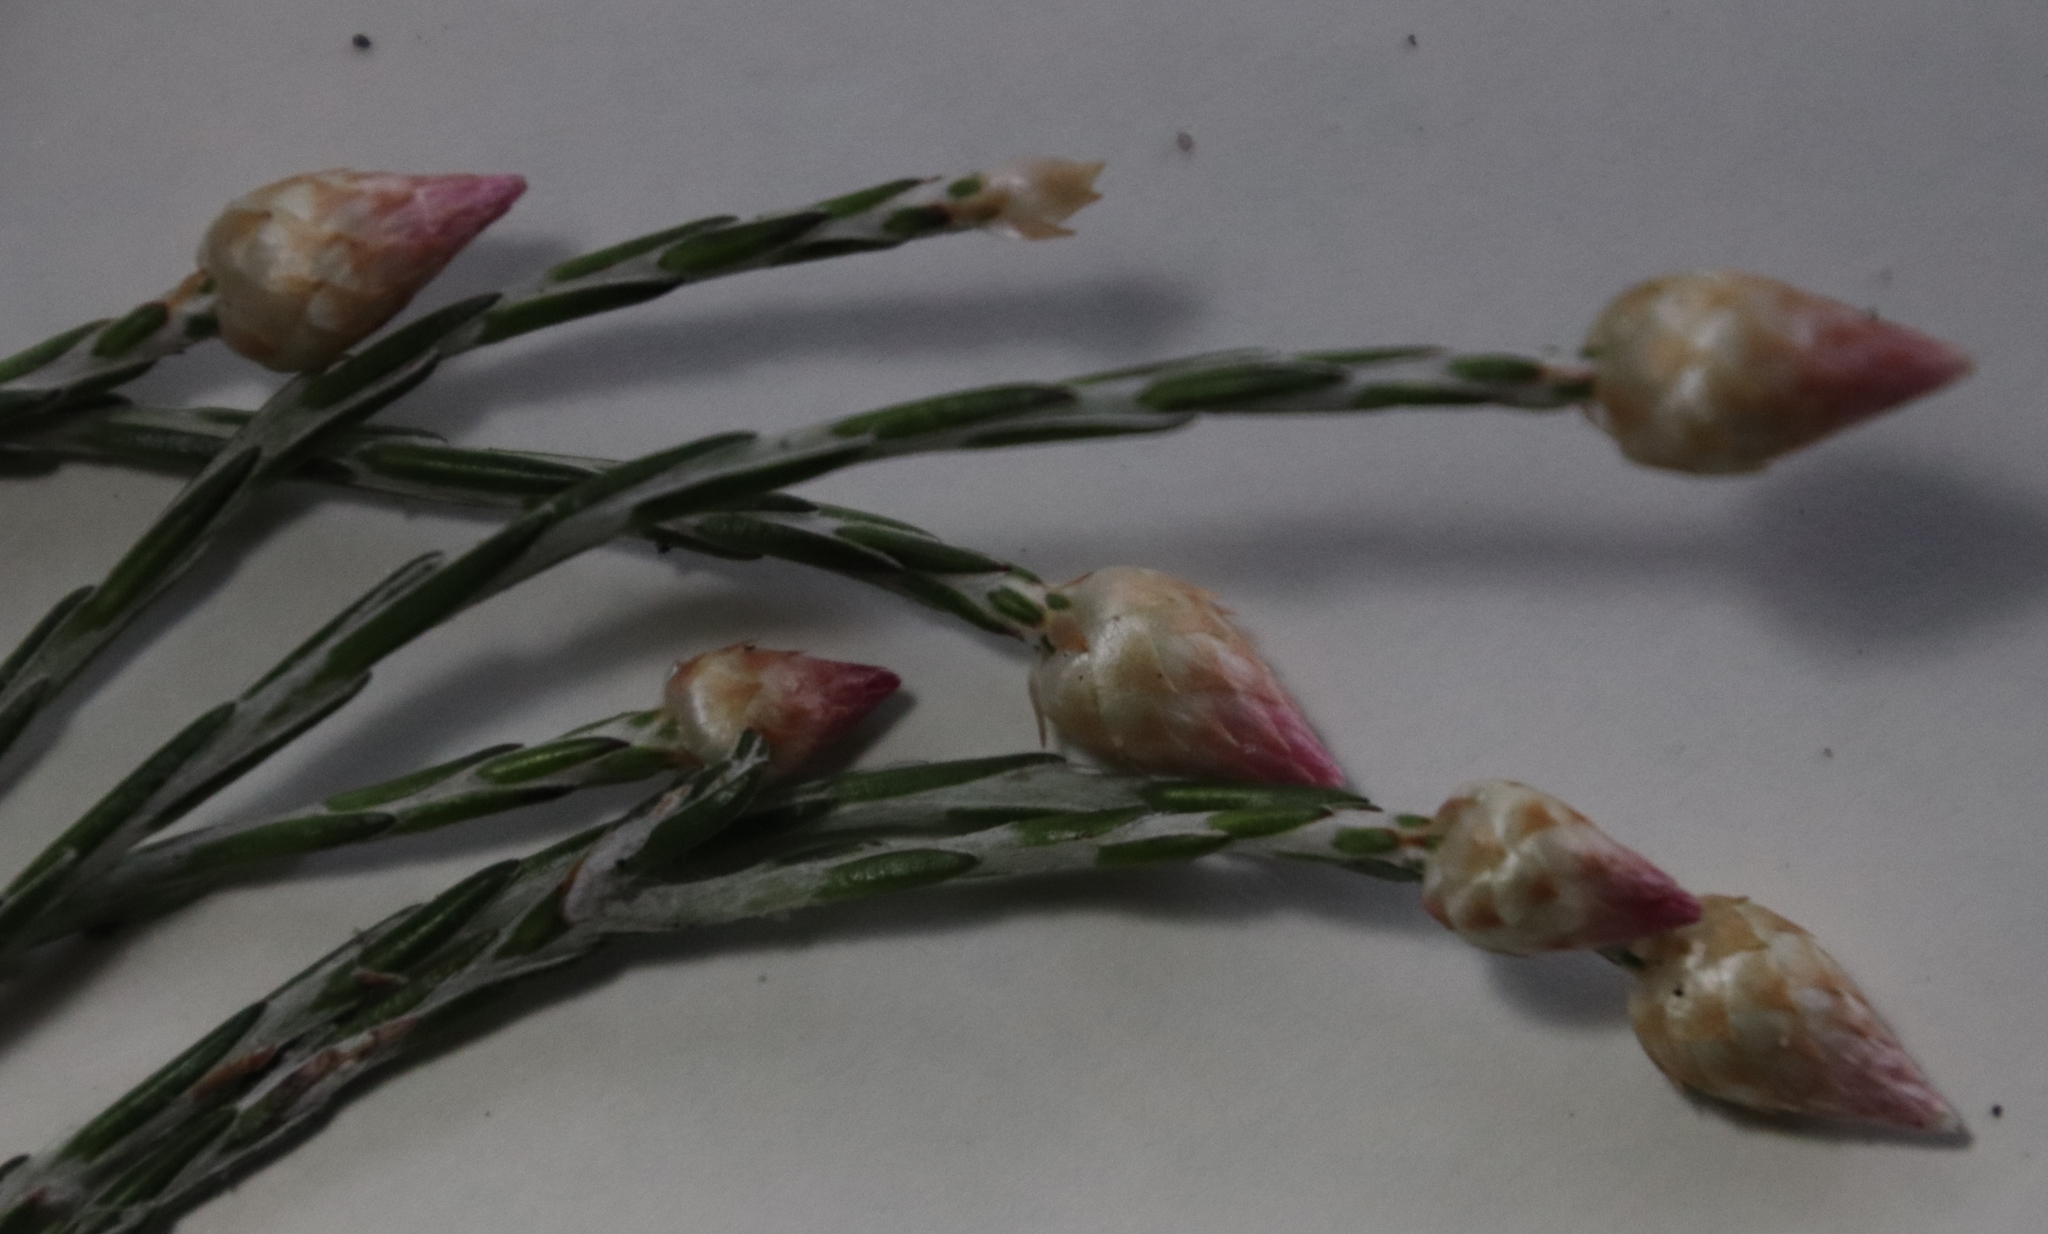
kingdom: Plantae
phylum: Tracheophyta
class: Magnoliopsida
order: Asterales
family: Asteraceae
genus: Edmondia
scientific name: Edmondia sesamoides
